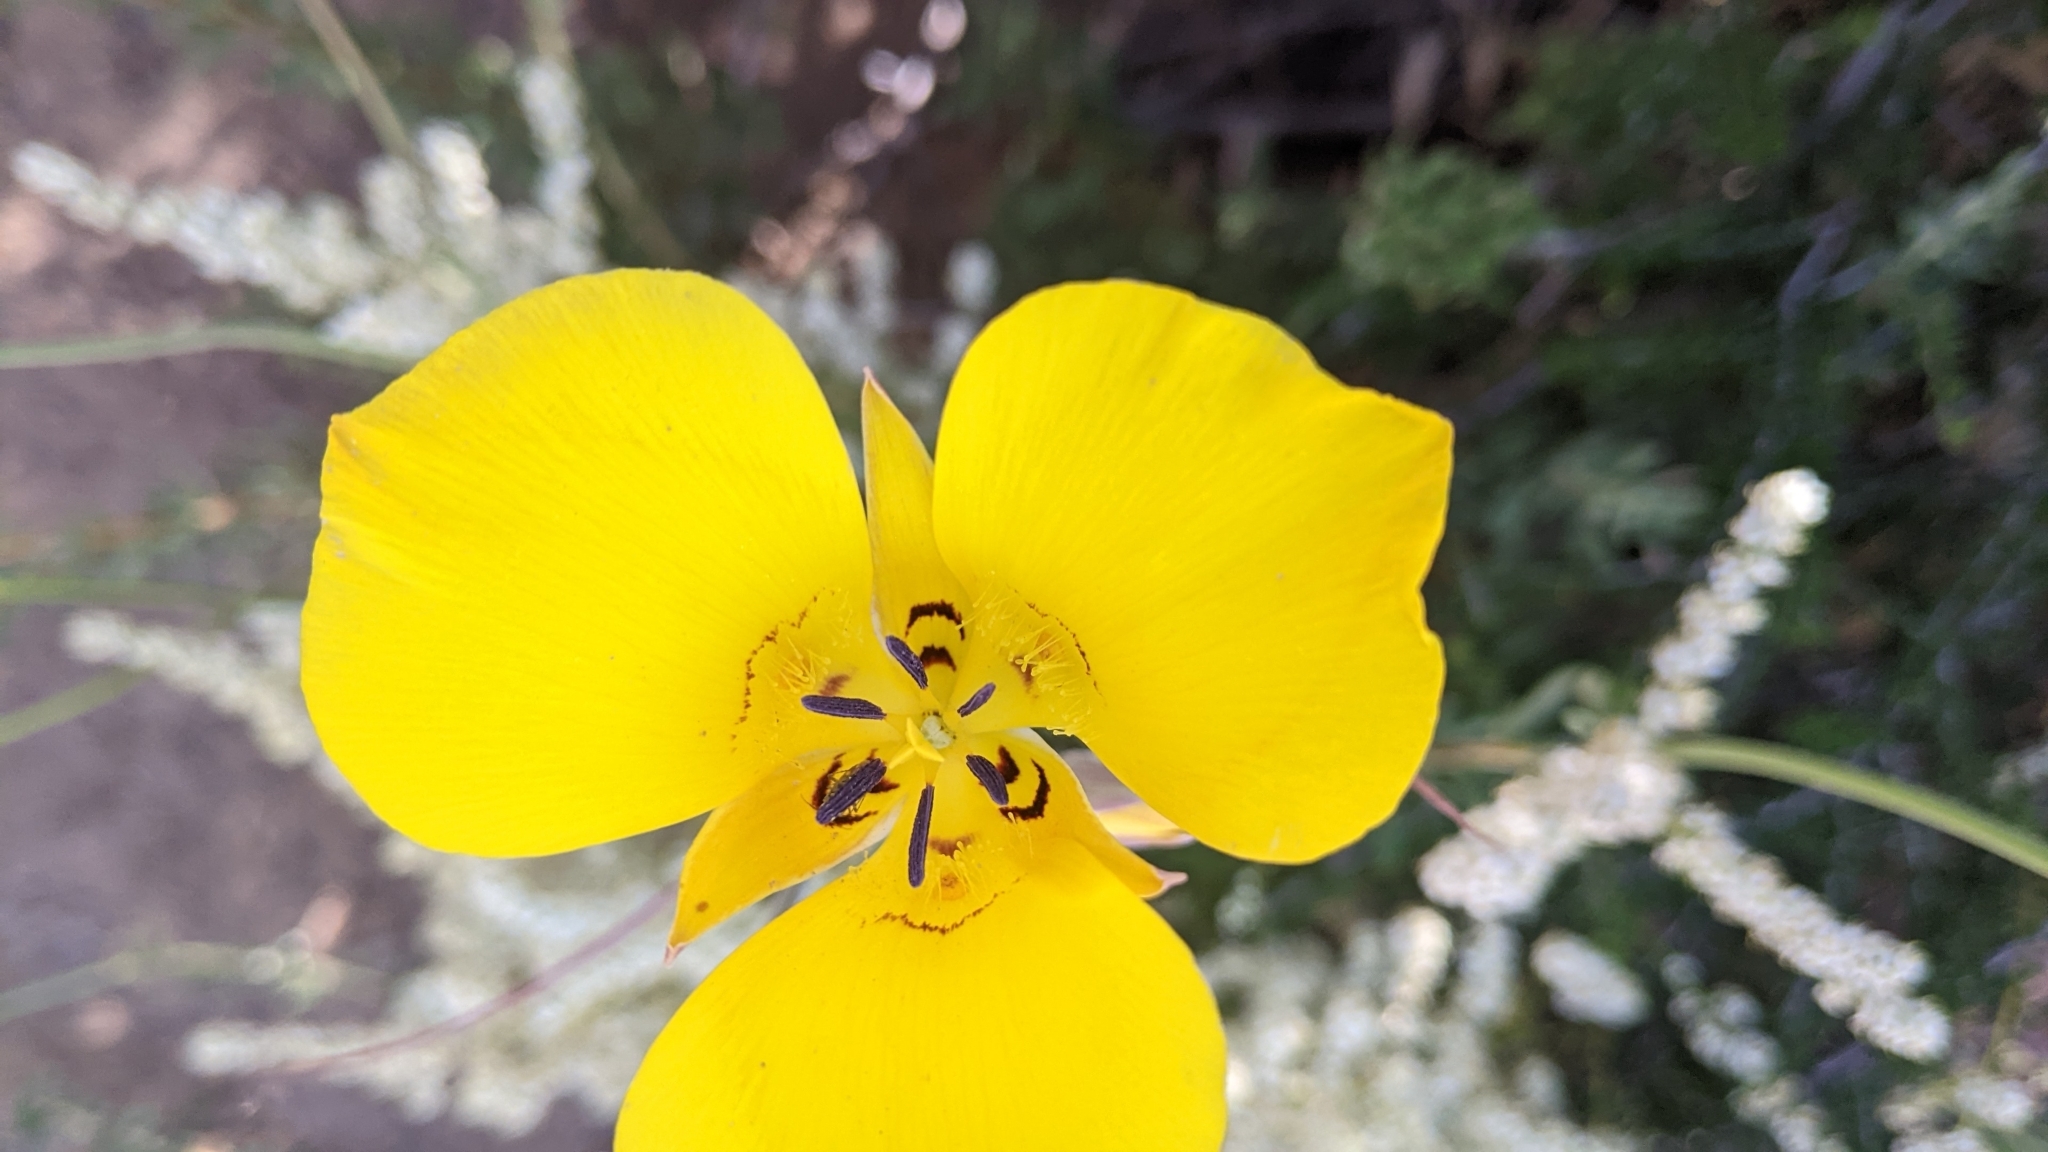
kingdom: Plantae
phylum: Tracheophyta
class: Liliopsida
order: Liliales
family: Liliaceae
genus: Calochortus
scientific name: Calochortus clavatus
